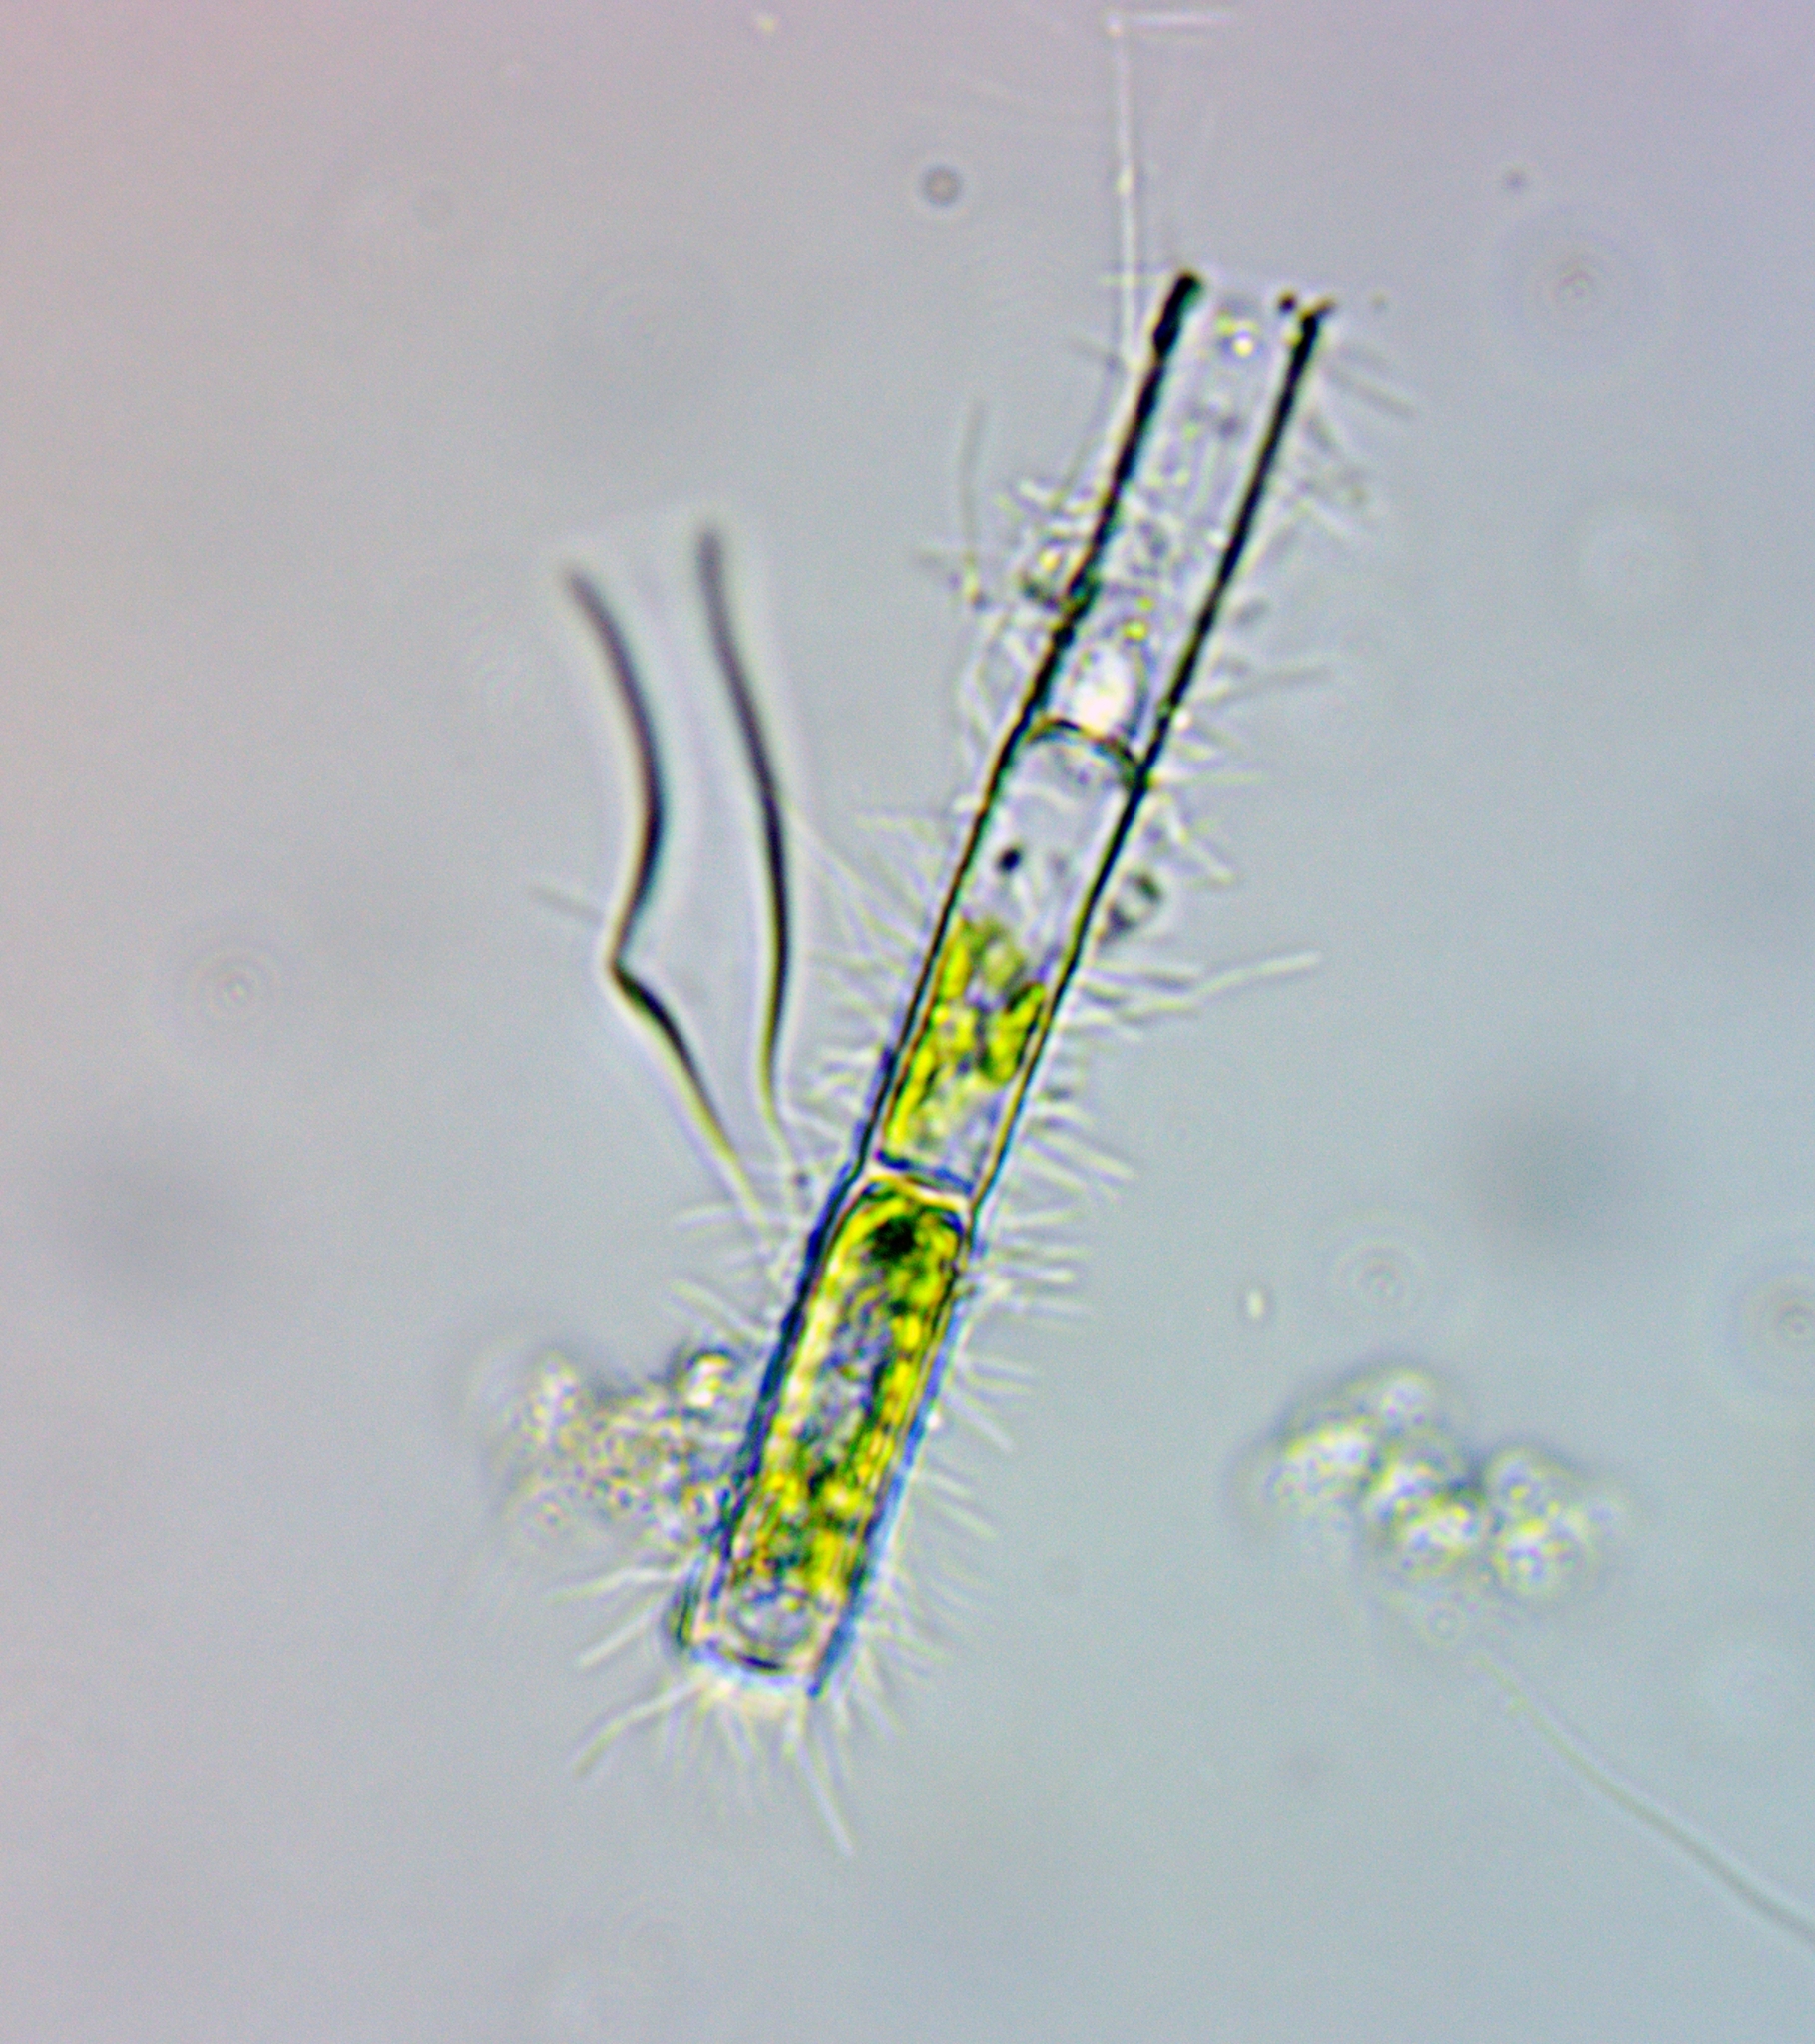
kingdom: Plantae
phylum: Chlorophyta
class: Chlorophyceae
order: Oedogoniales
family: Oedogoniaceae
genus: Oedogonium
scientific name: Oedogonium
